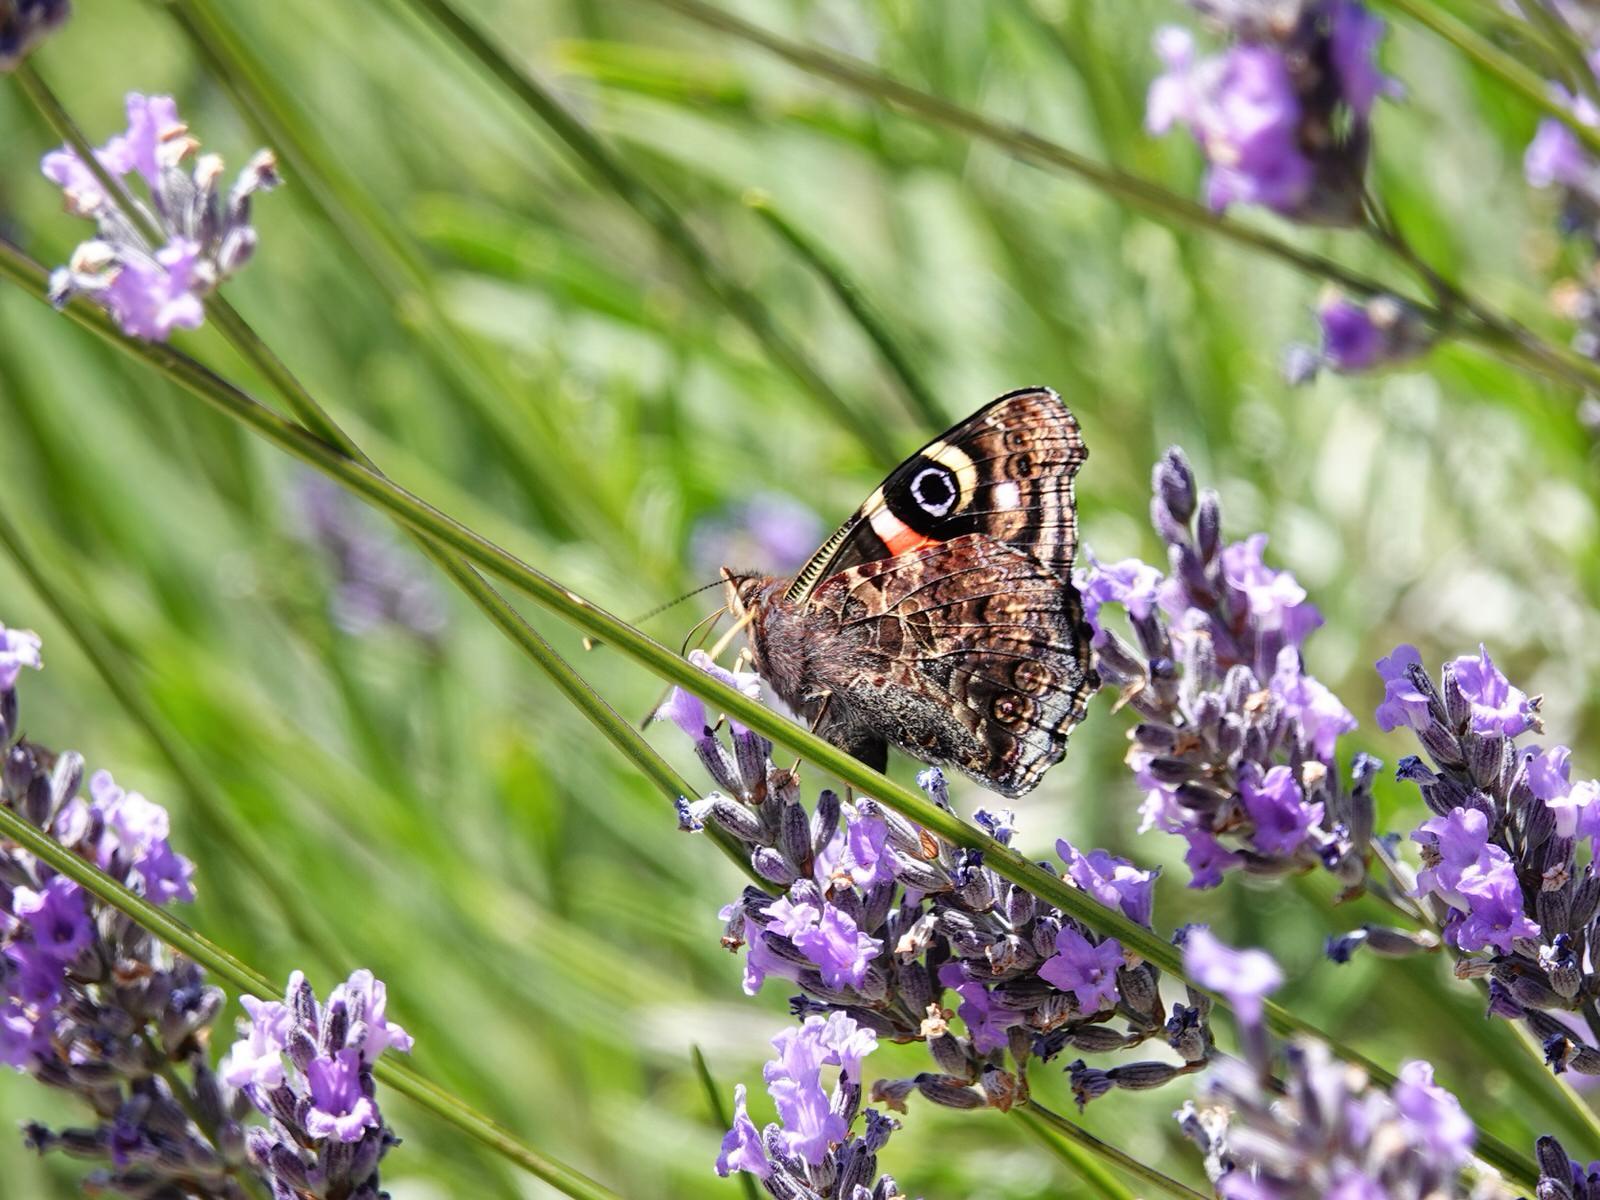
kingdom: Animalia
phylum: Arthropoda
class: Insecta
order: Lepidoptera
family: Nymphalidae
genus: Vanessa
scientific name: Vanessa gonerilla
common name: New zealand red admiral
